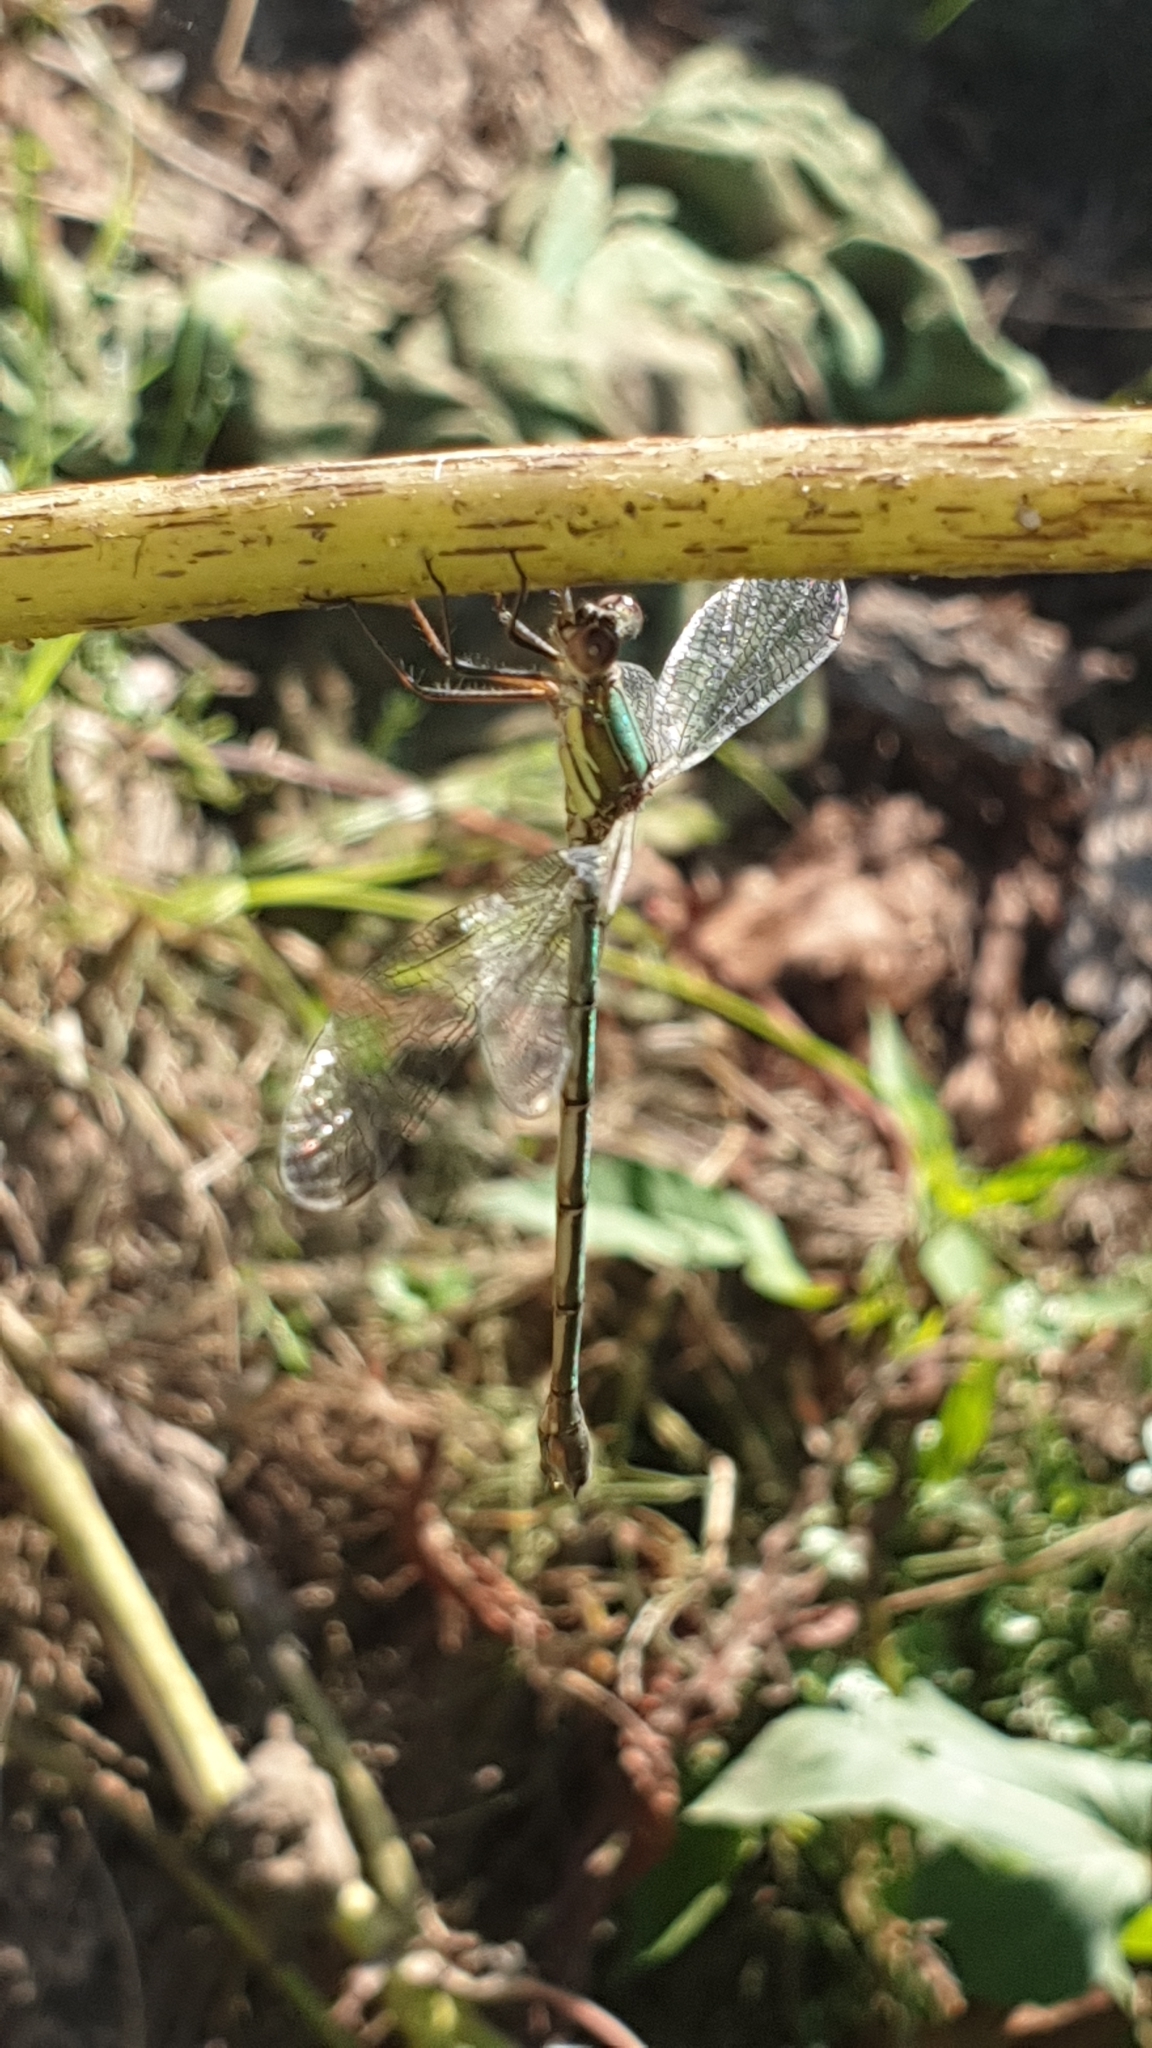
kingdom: Animalia
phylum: Arthropoda
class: Insecta
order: Odonata
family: Lestidae
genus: Chalcolestes
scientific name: Chalcolestes viridis
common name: Green emerald damselfly
